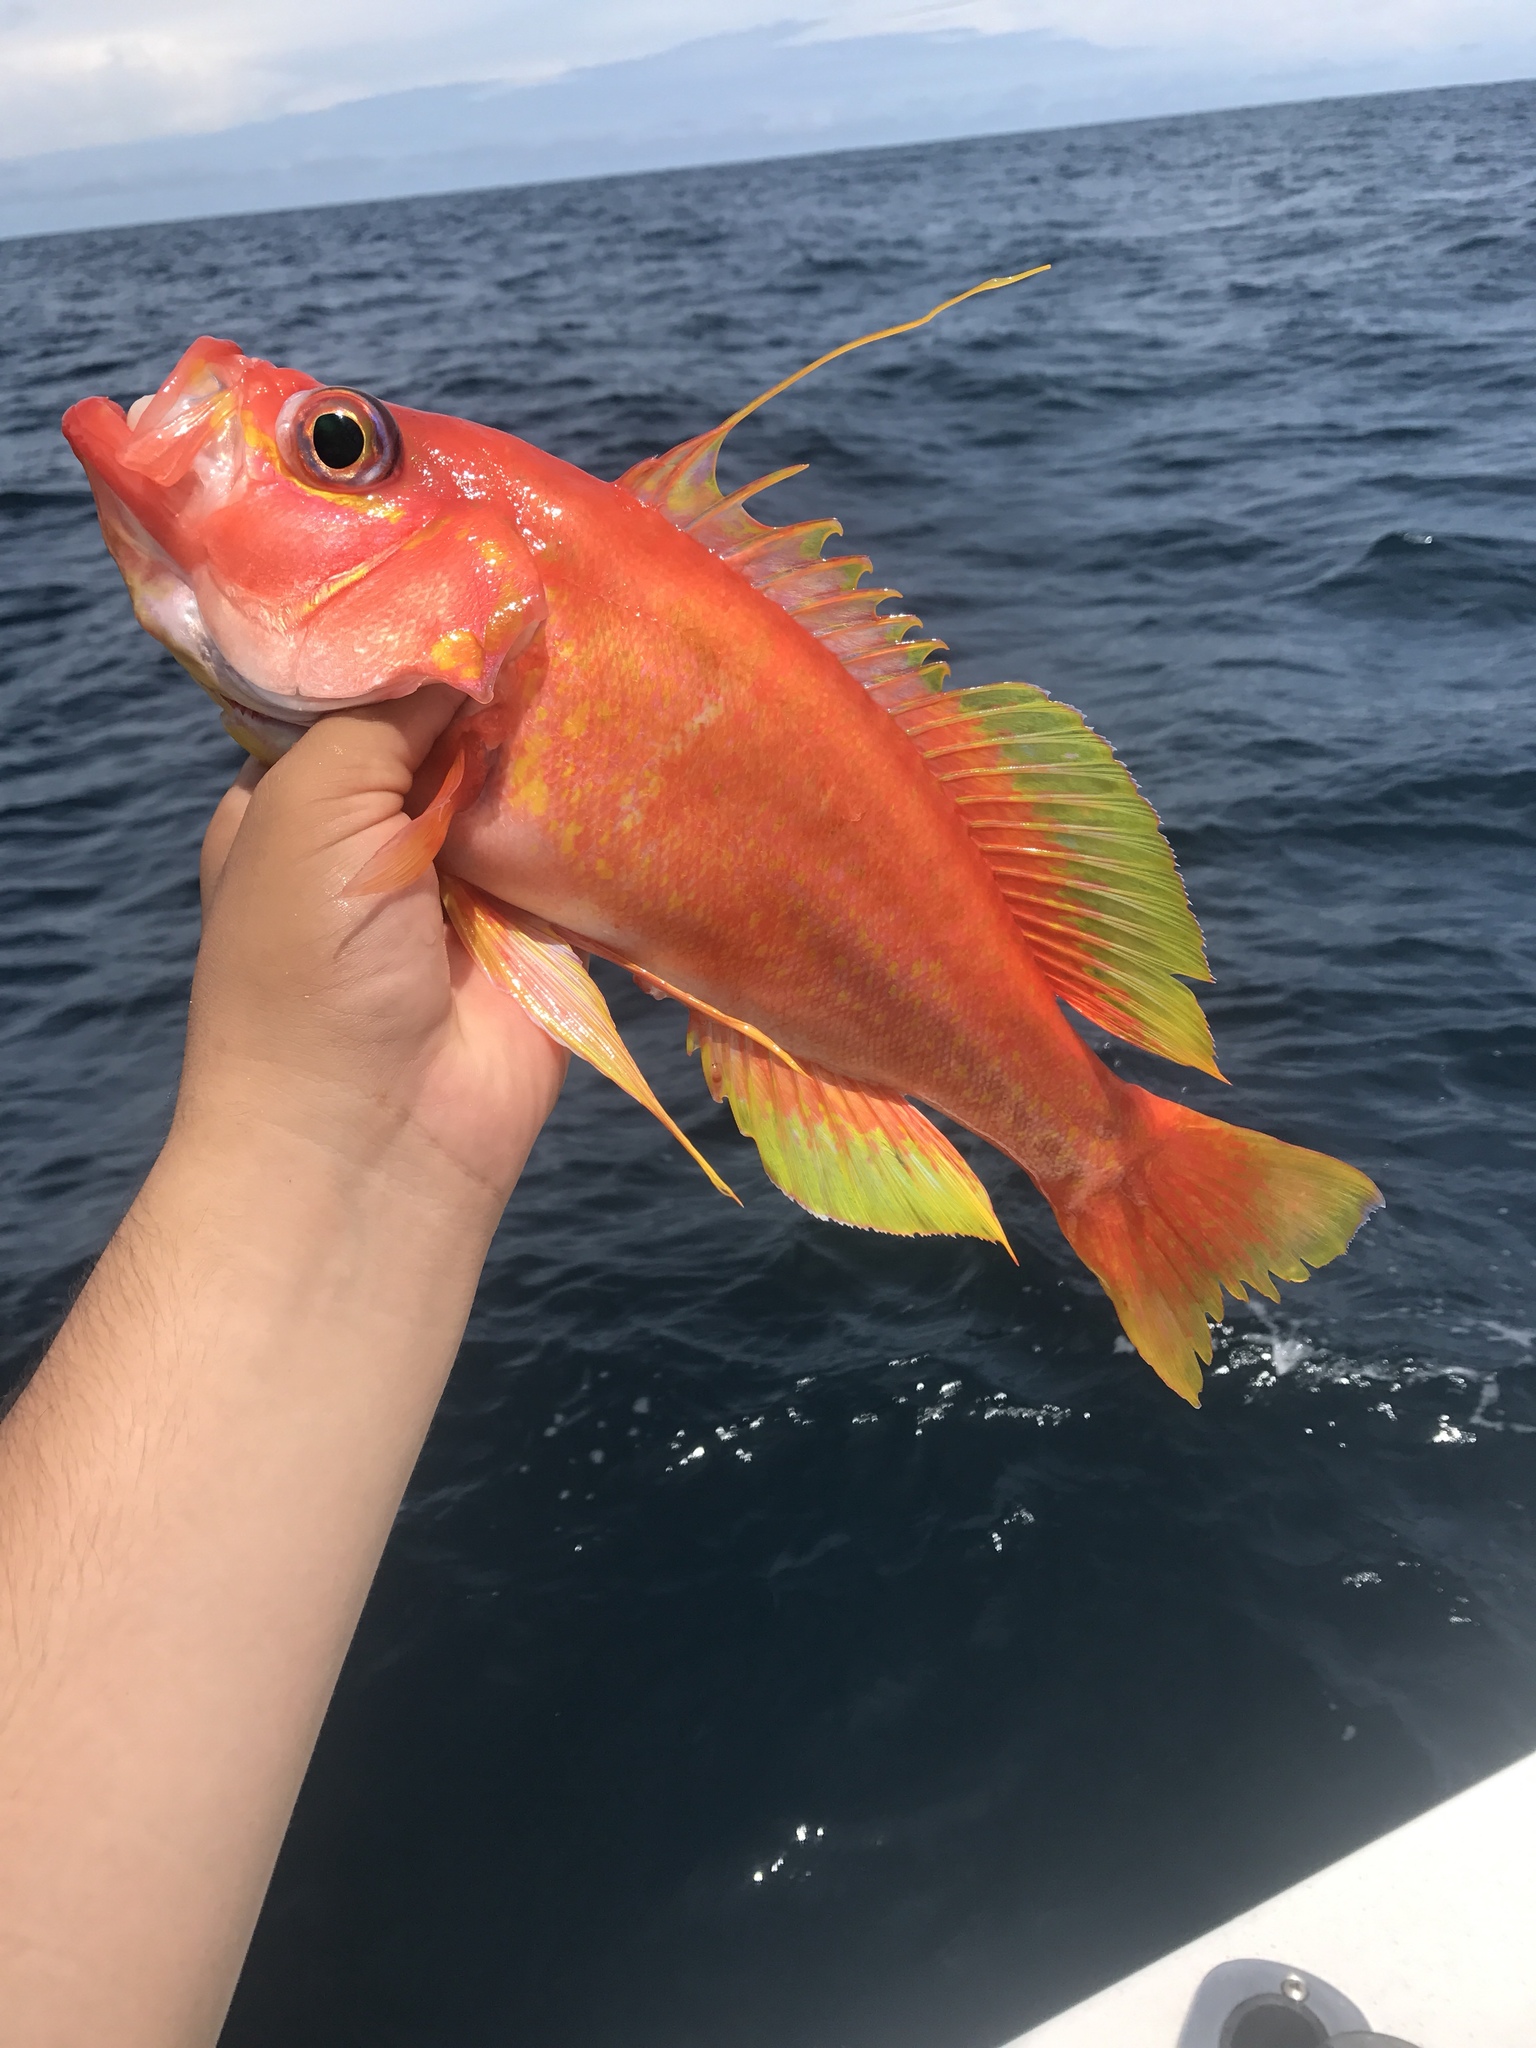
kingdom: Animalia
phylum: Chordata
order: Perciformes
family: Serranidae
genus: Hemanthias
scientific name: Hemanthias signifer
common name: Damsel bass
